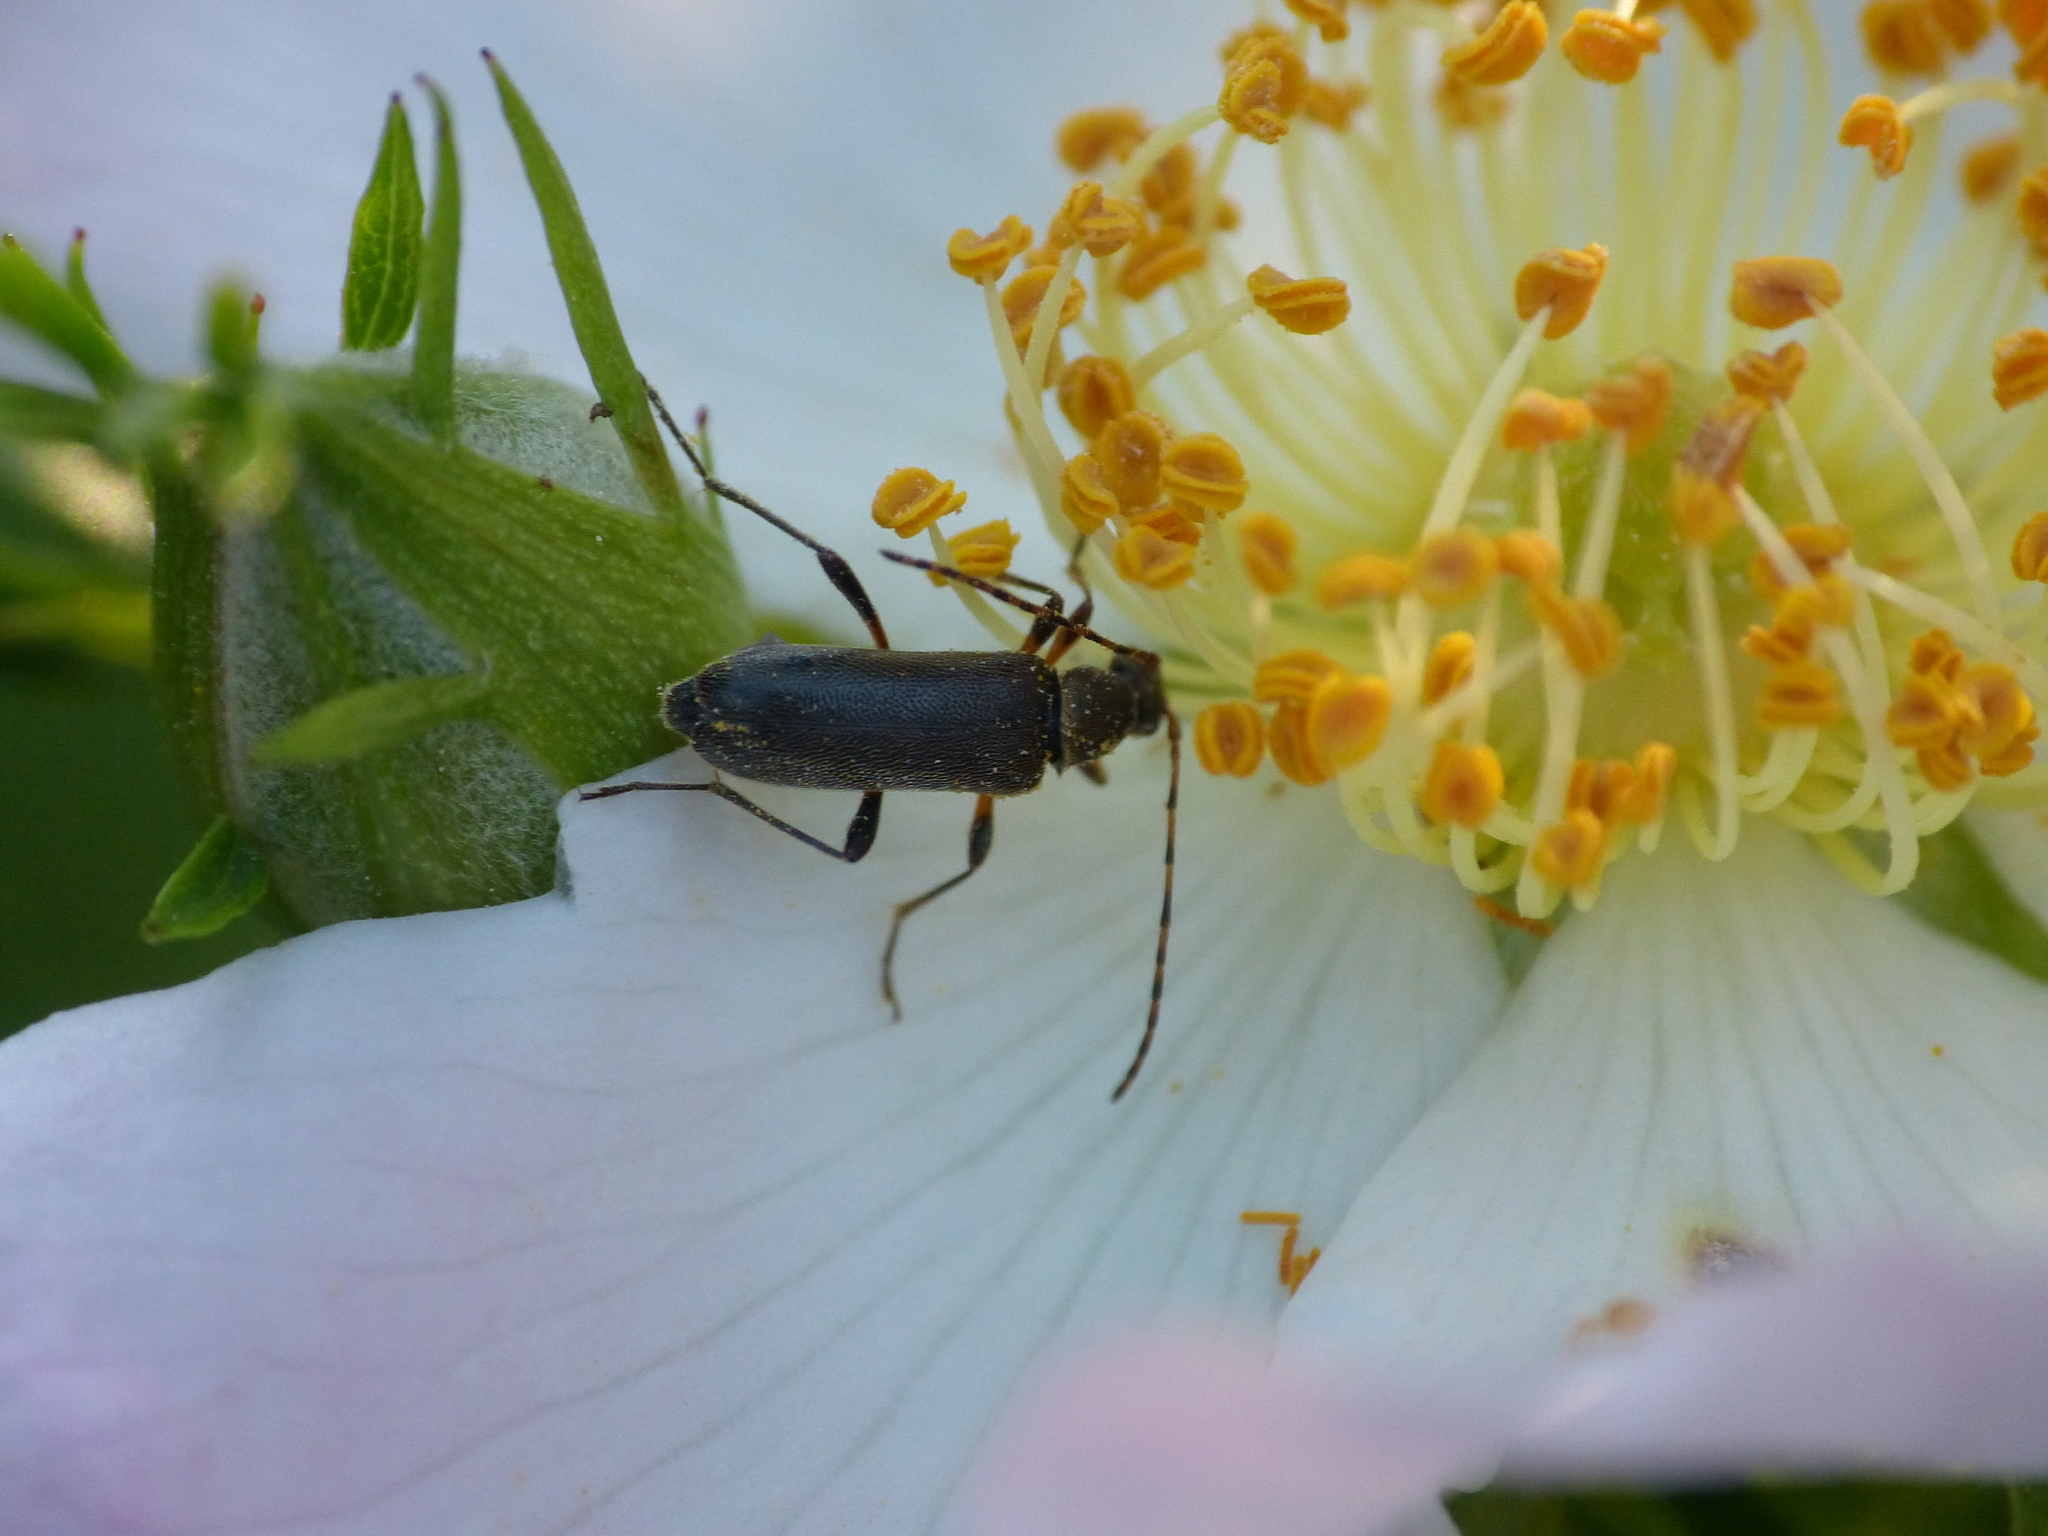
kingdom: Animalia
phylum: Arthropoda
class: Insecta
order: Coleoptera
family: Cerambycidae
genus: Grammoptera
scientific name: Grammoptera ruficornis
